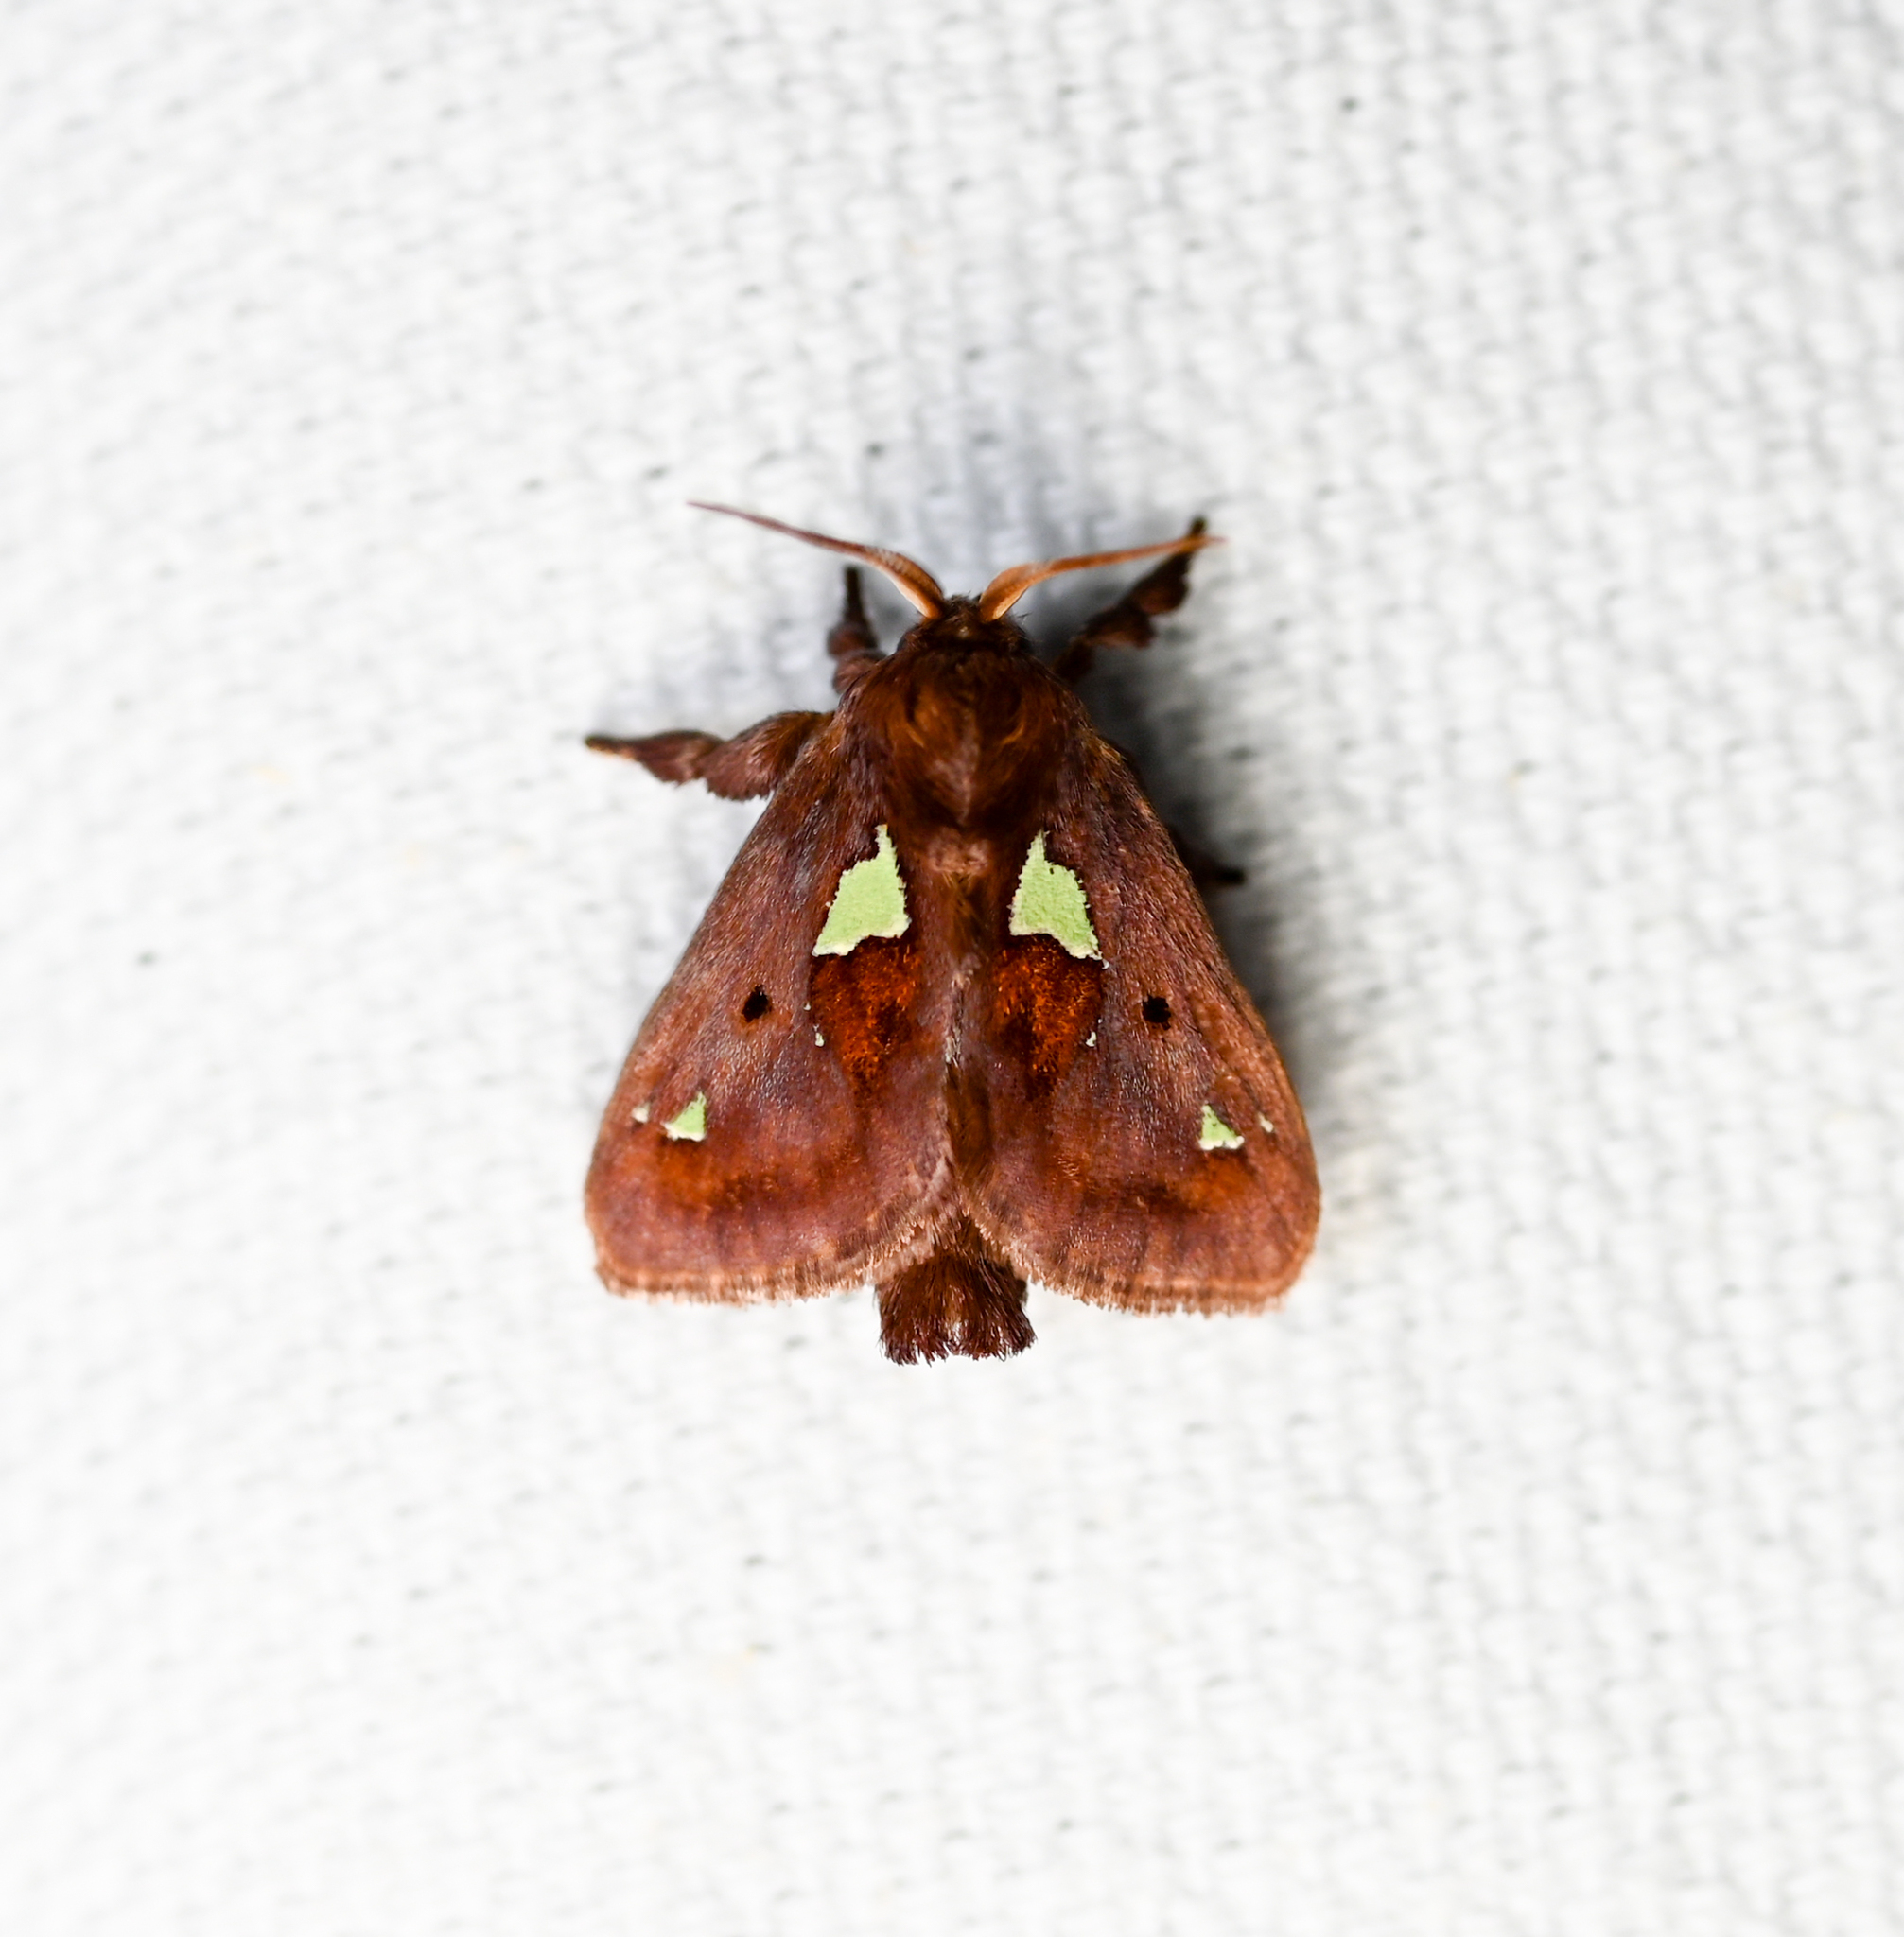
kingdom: Animalia
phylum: Arthropoda
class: Insecta
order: Lepidoptera
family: Limacodidae
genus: Euclea
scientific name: Euclea delphinii
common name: Spiny oak-slug moth
